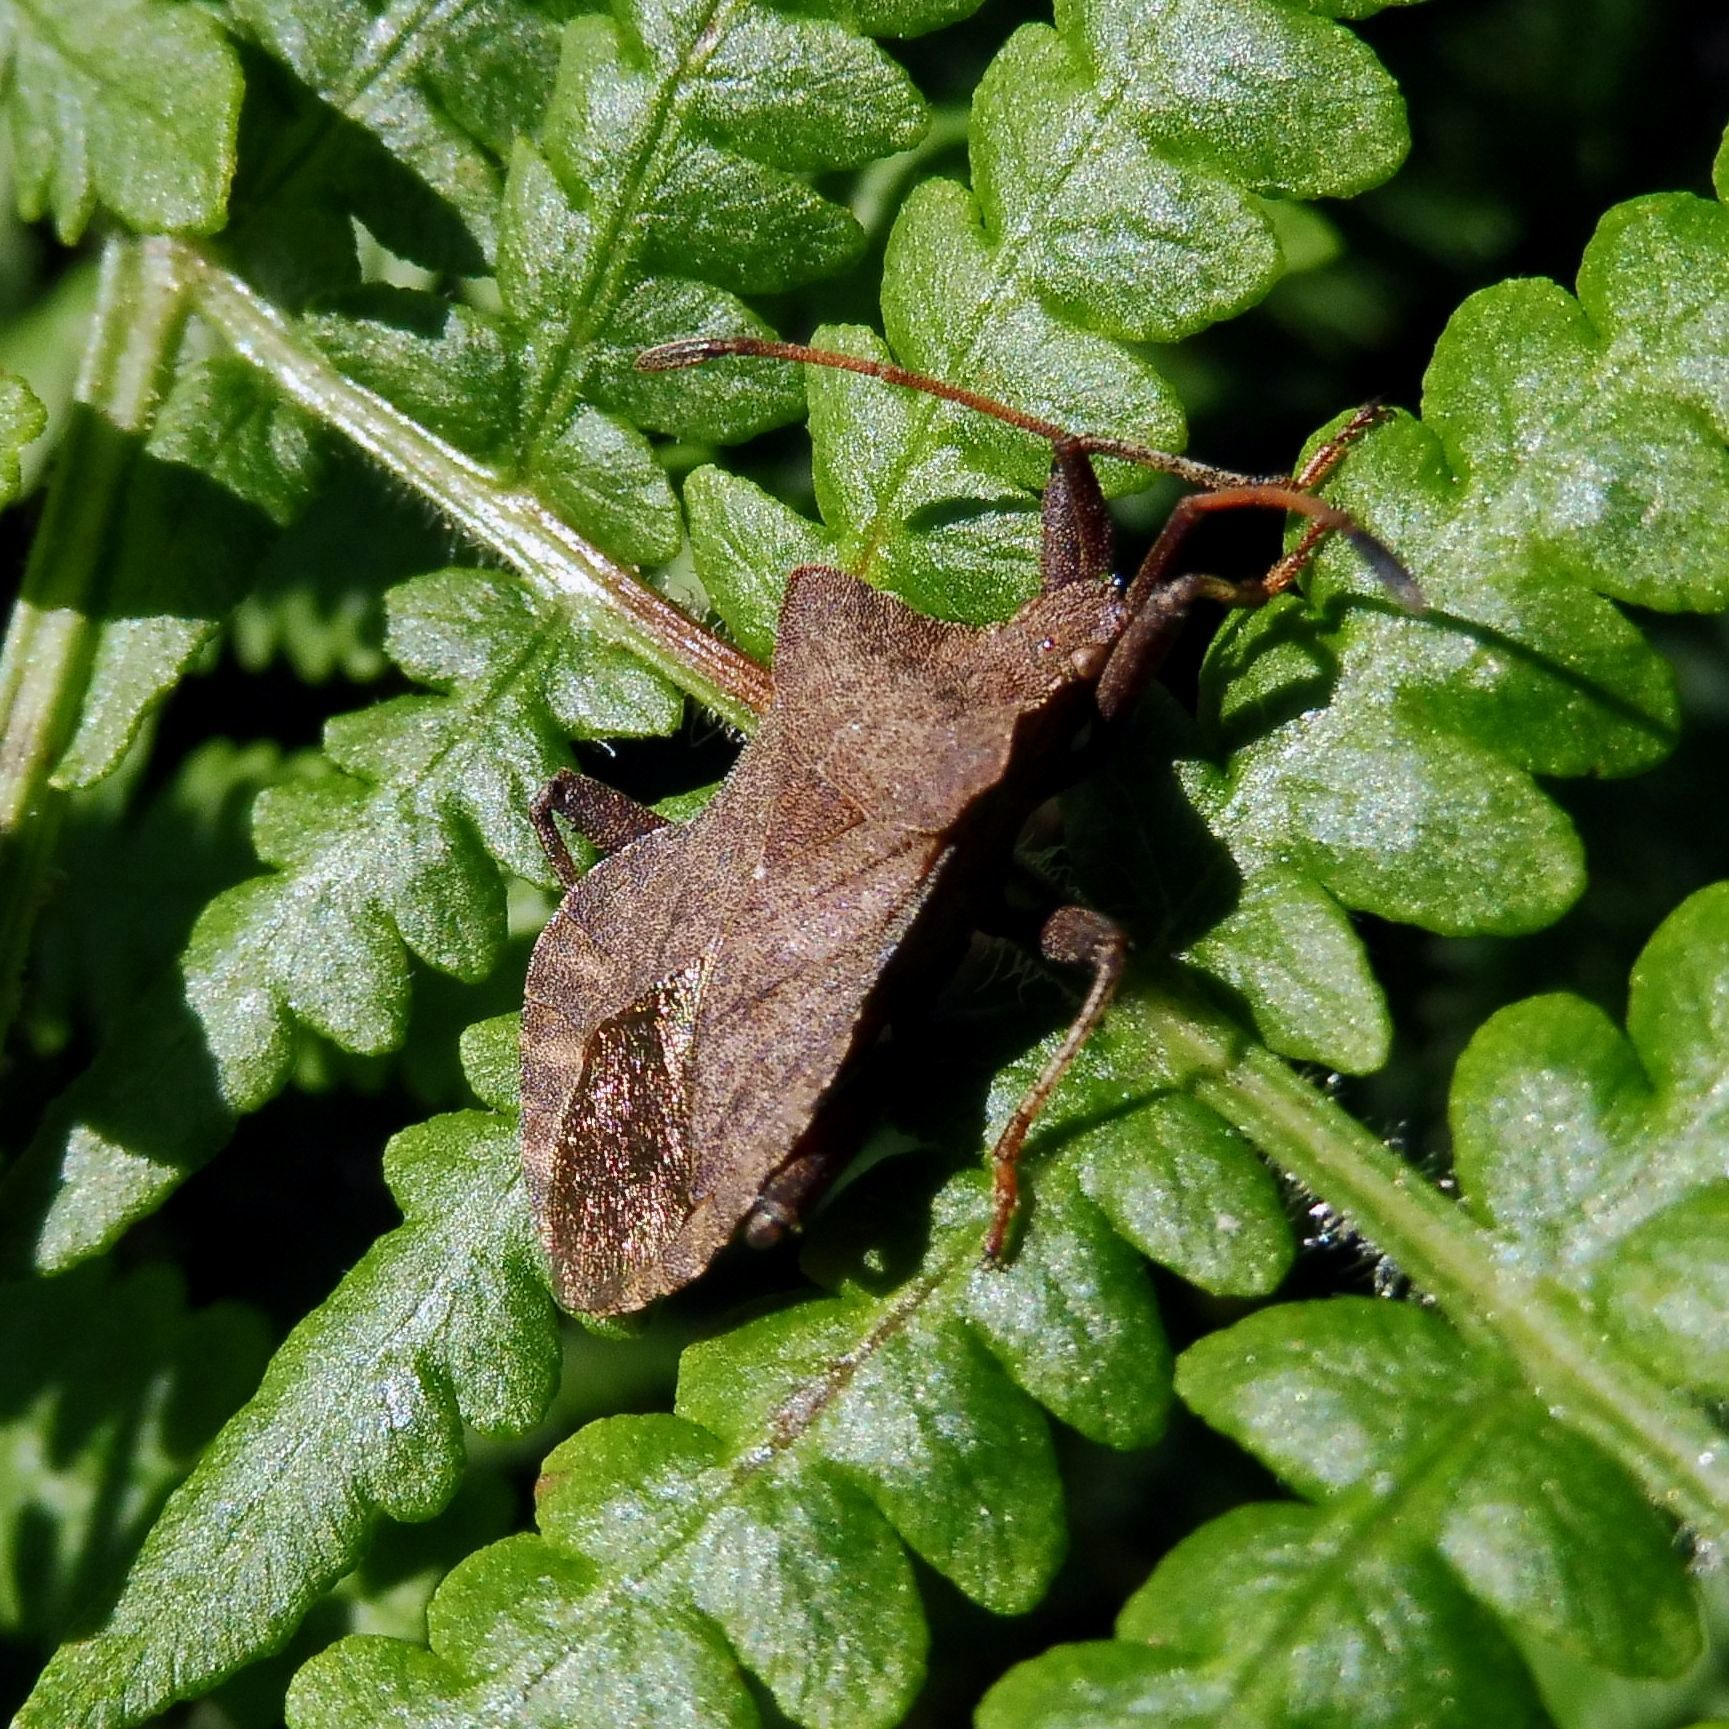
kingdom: Animalia
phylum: Arthropoda
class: Insecta
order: Hemiptera
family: Coreidae
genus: Coreus
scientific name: Coreus marginatus
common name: Dock bug
